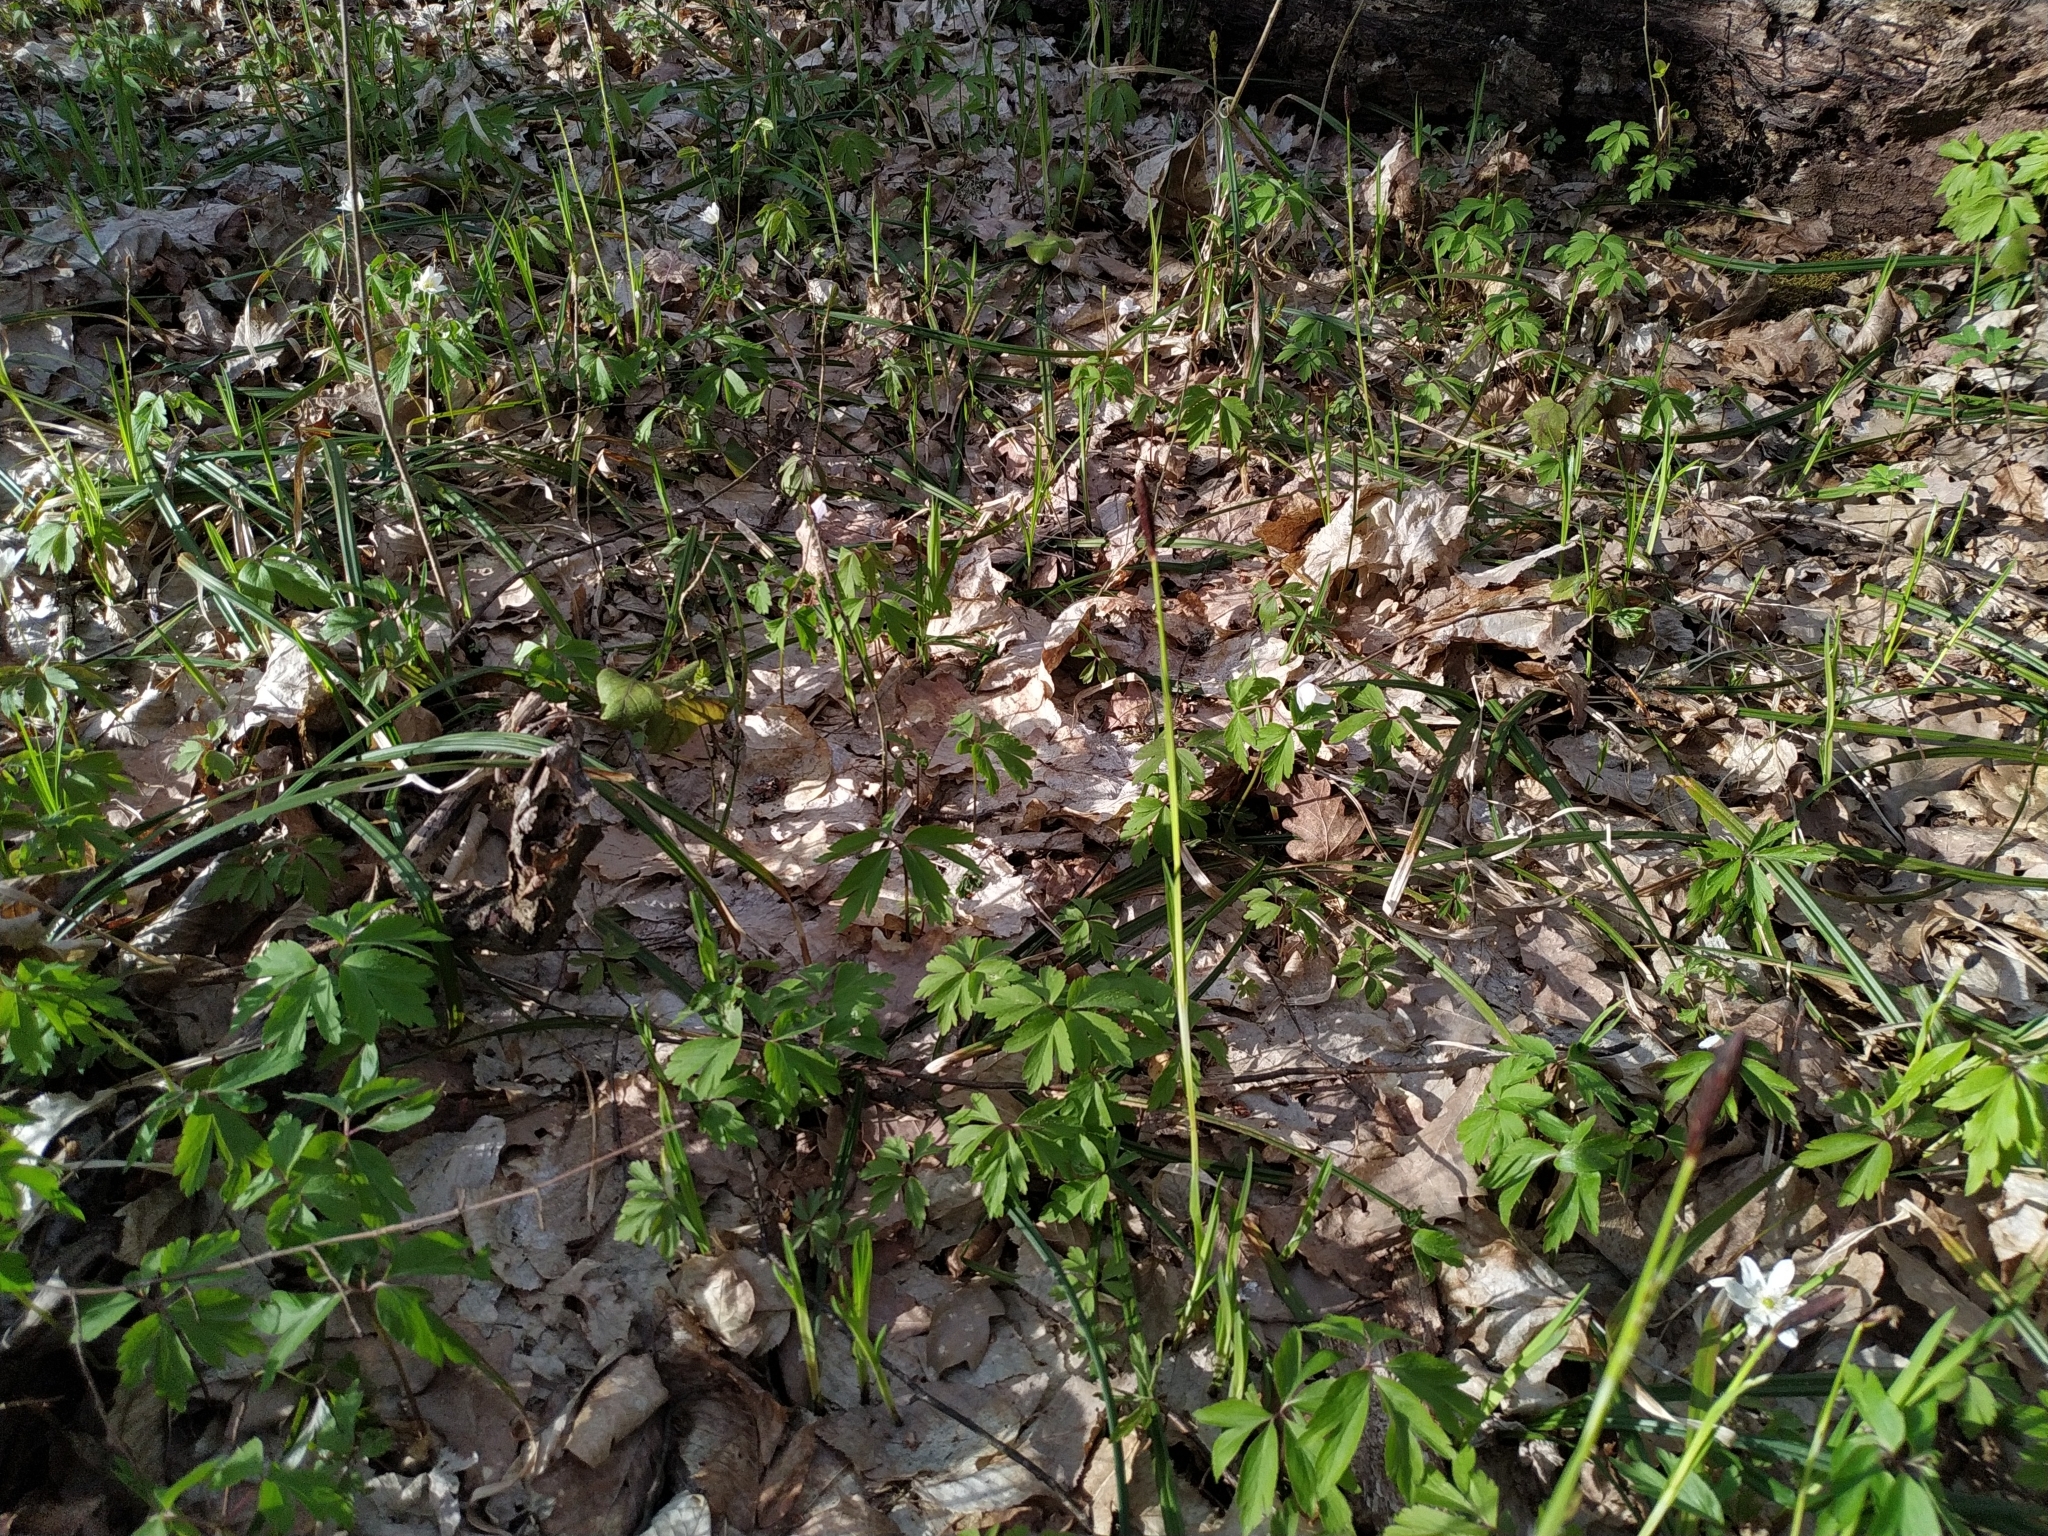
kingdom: Plantae
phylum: Tracheophyta
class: Liliopsida
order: Poales
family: Cyperaceae
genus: Carex
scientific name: Carex pilosa
